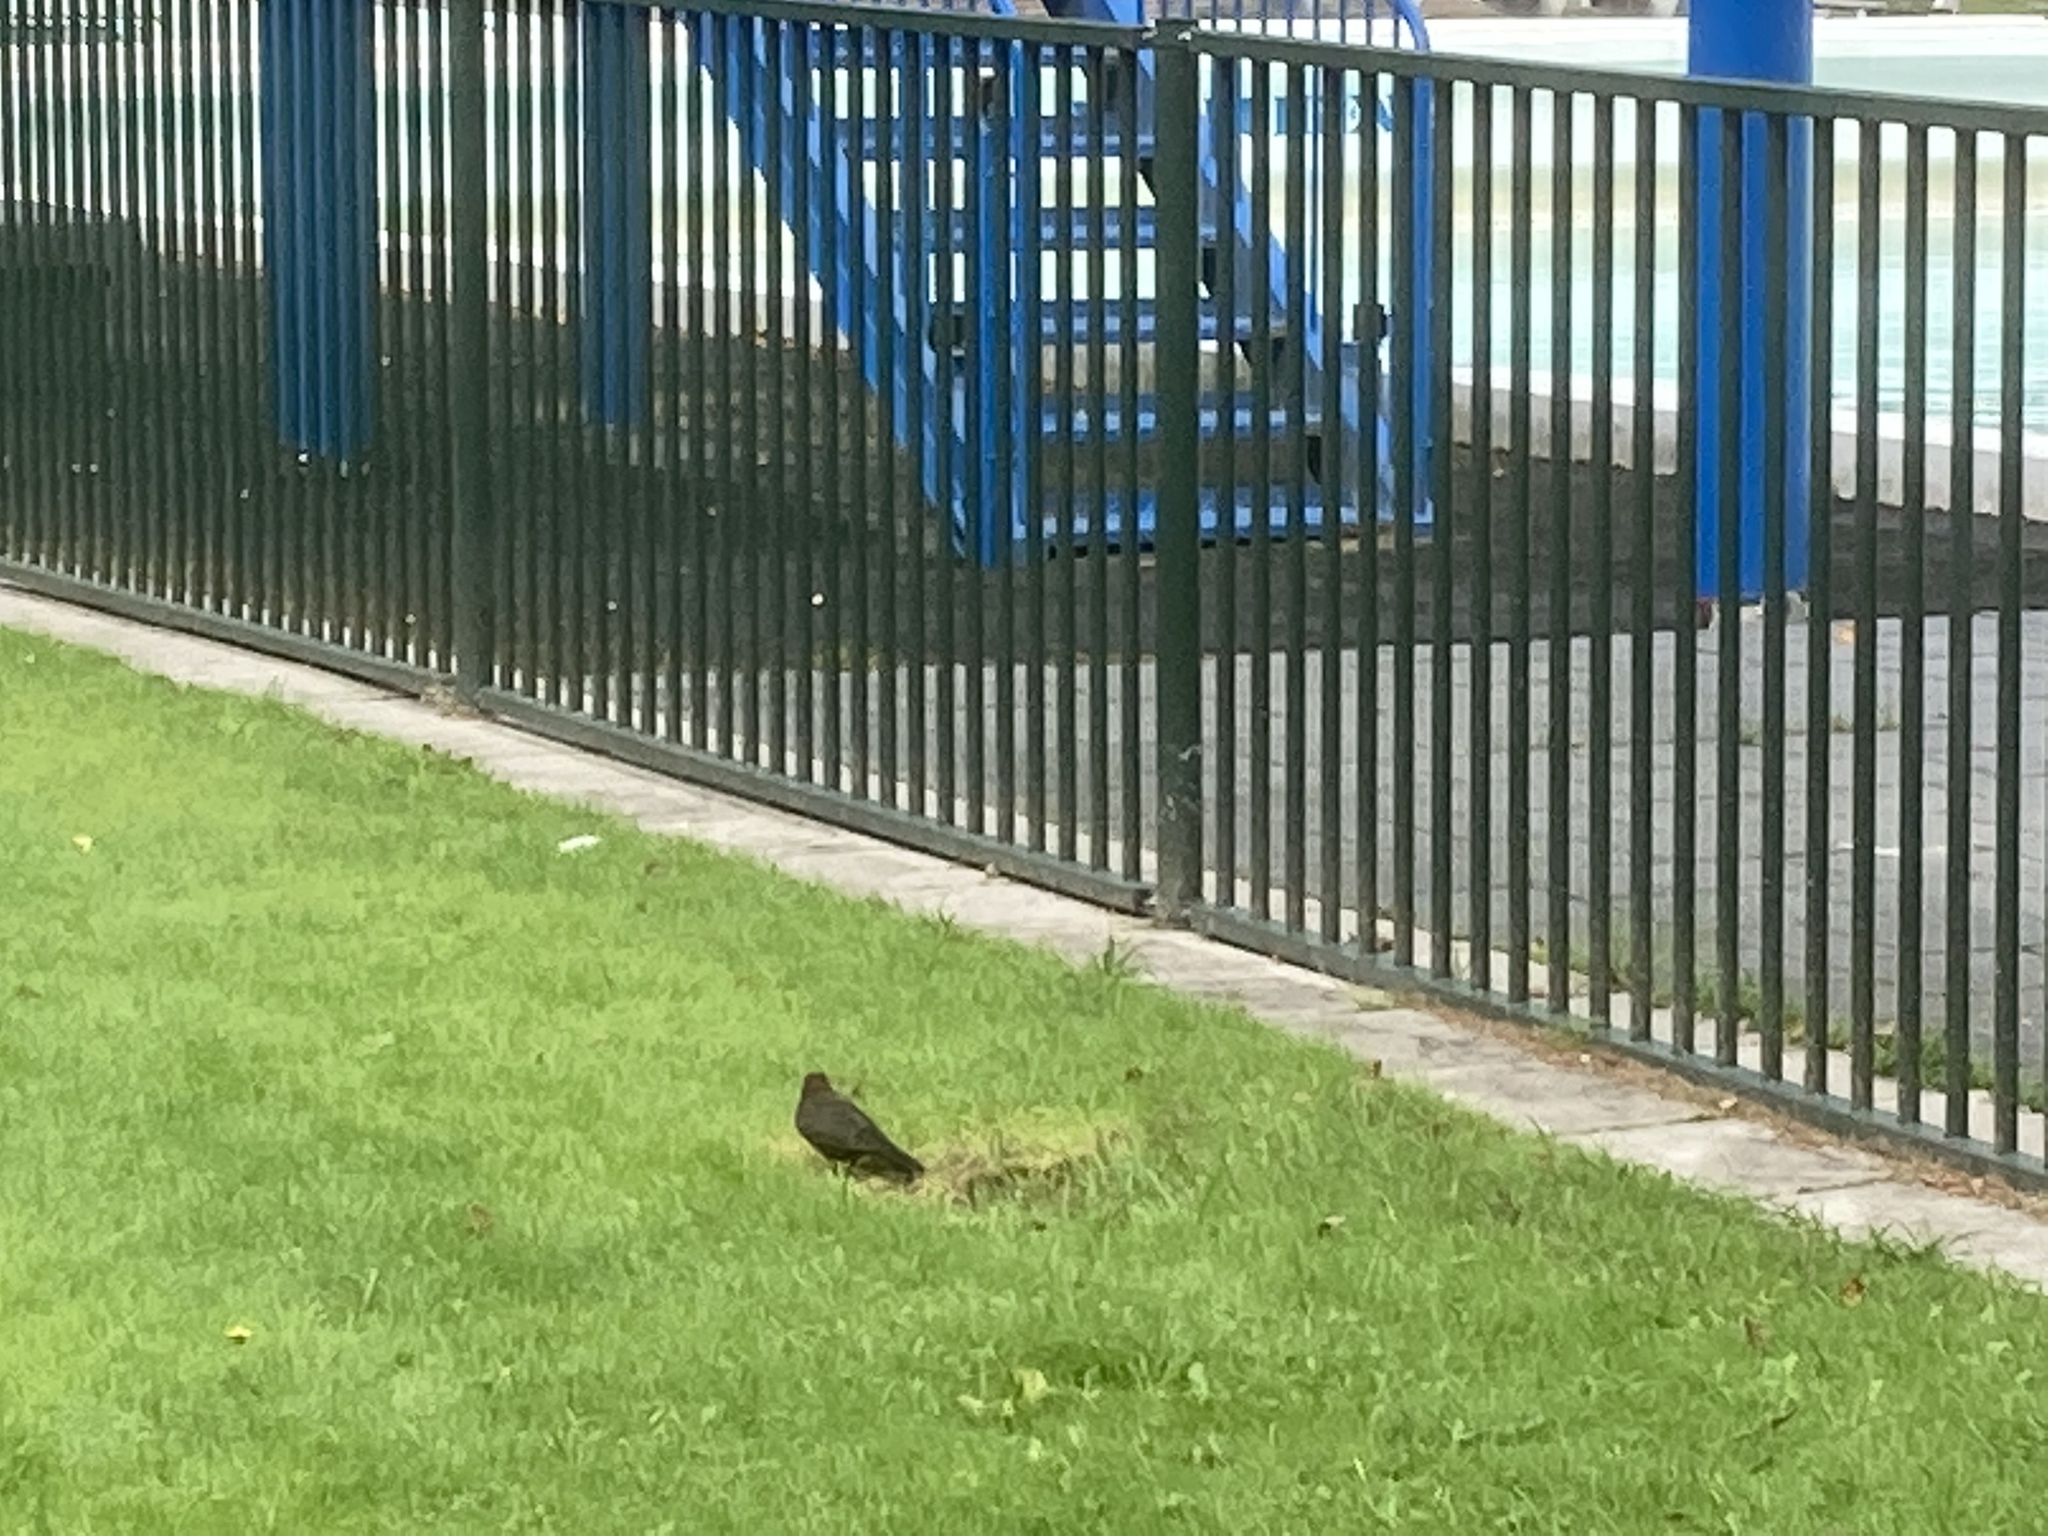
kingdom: Animalia
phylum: Chordata
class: Aves
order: Passeriformes
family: Turdidae
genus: Turdus
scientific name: Turdus merula
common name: Common blackbird
